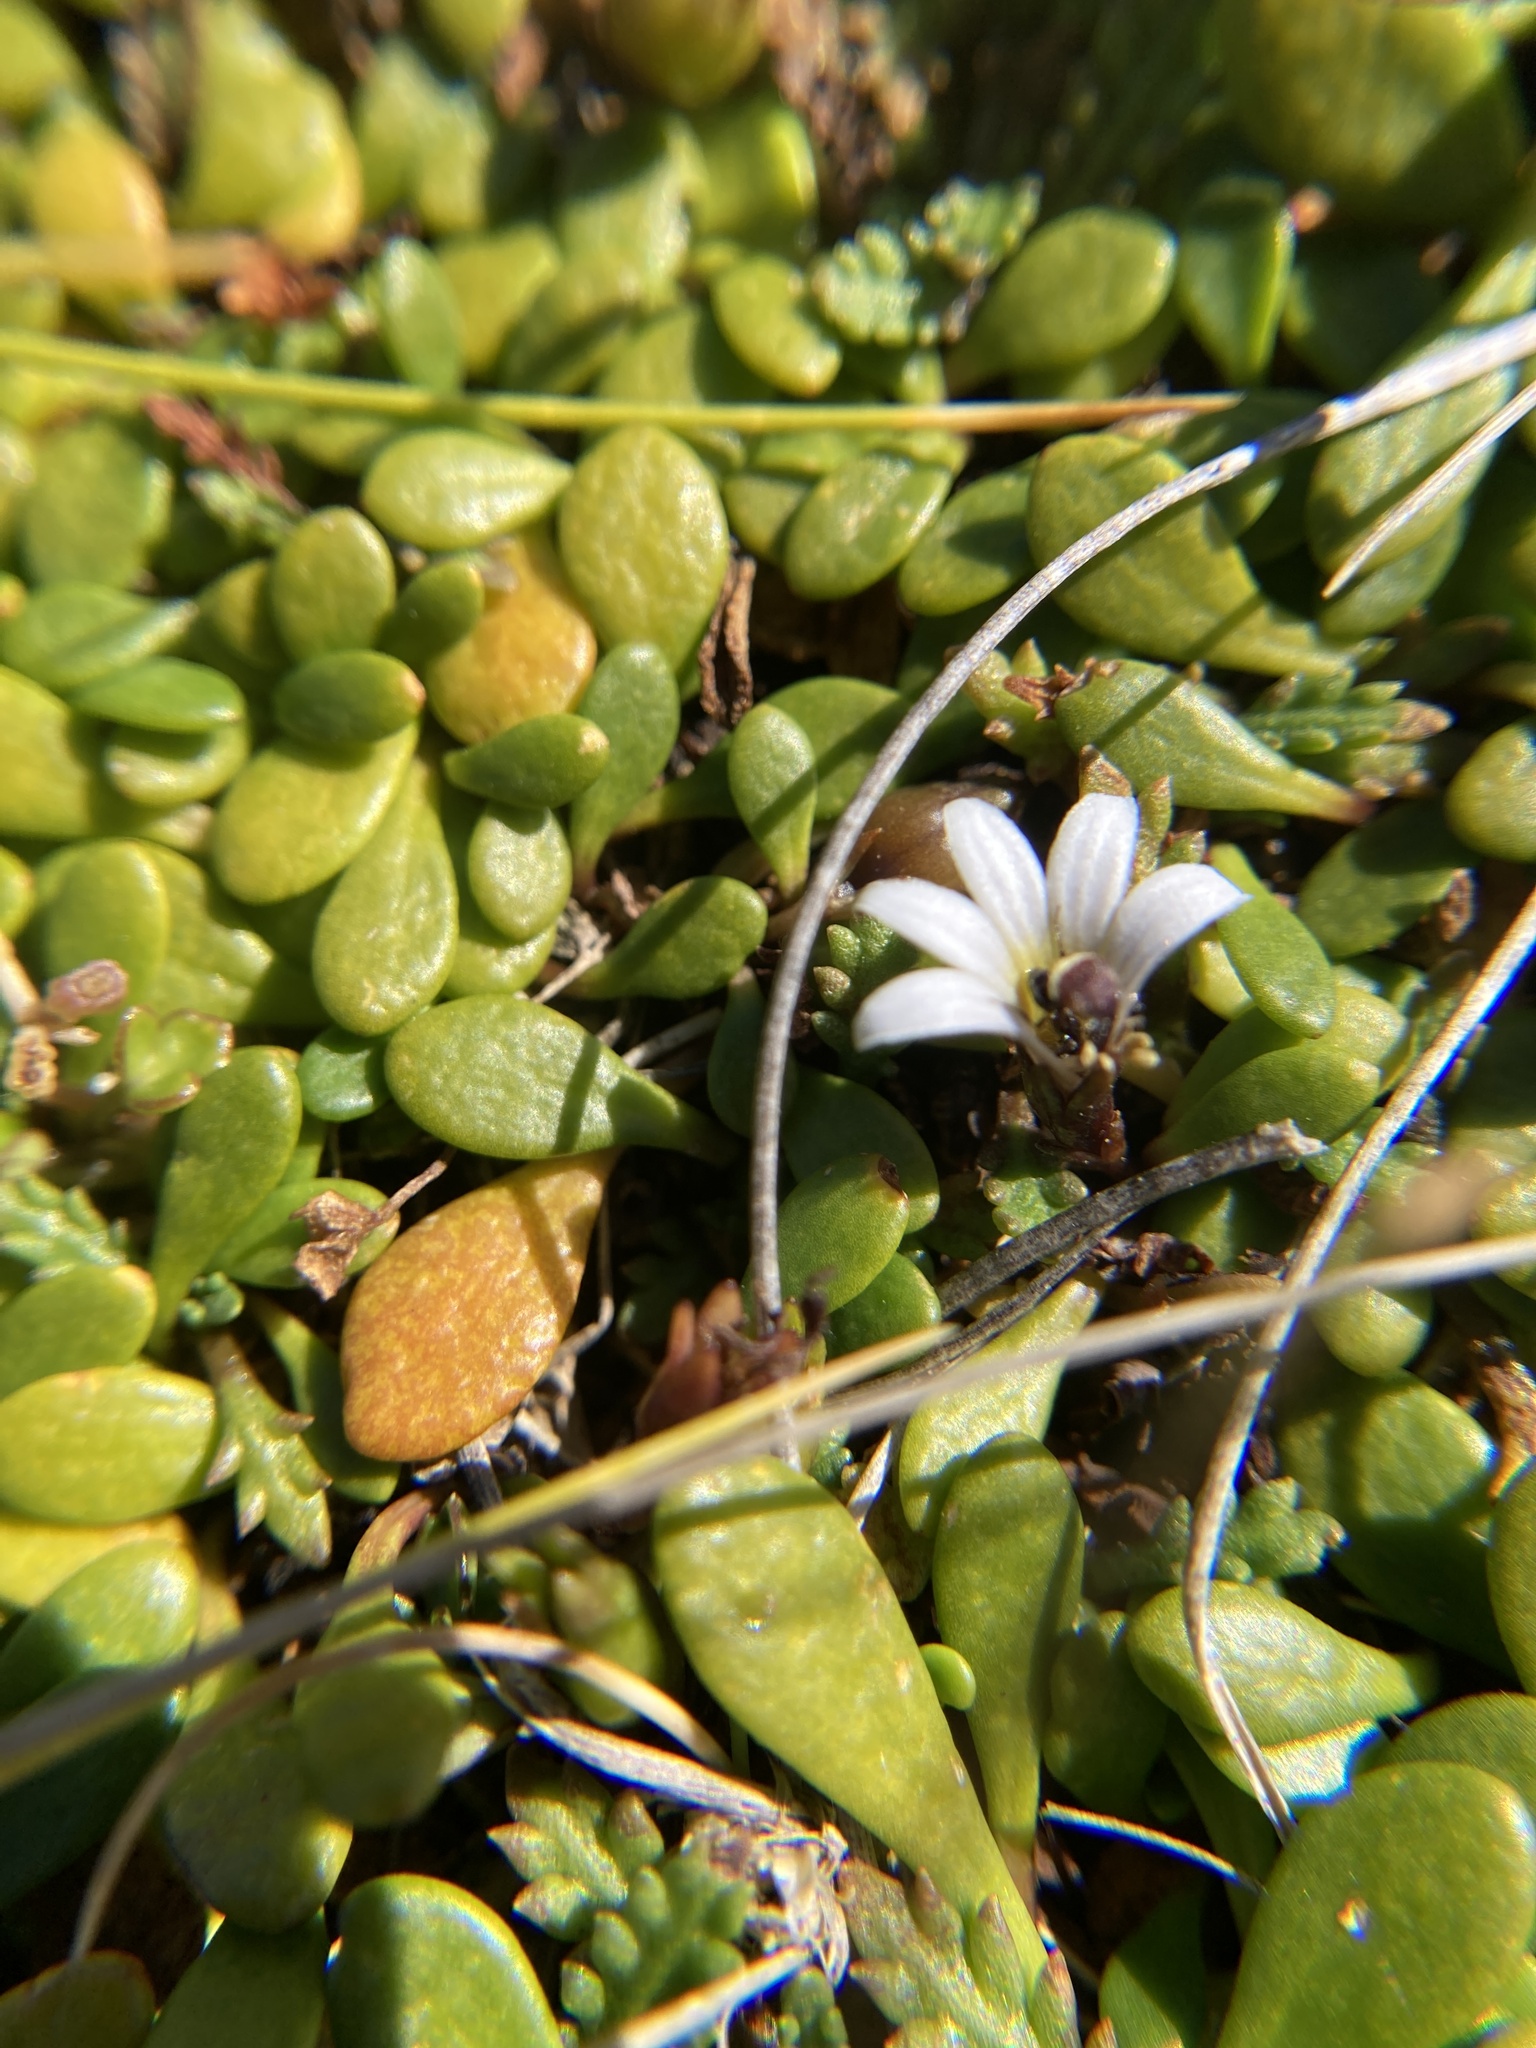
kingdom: Plantae
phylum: Tracheophyta
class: Magnoliopsida
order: Asterales
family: Goodeniaceae
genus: Goodenia
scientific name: Goodenia radicans
